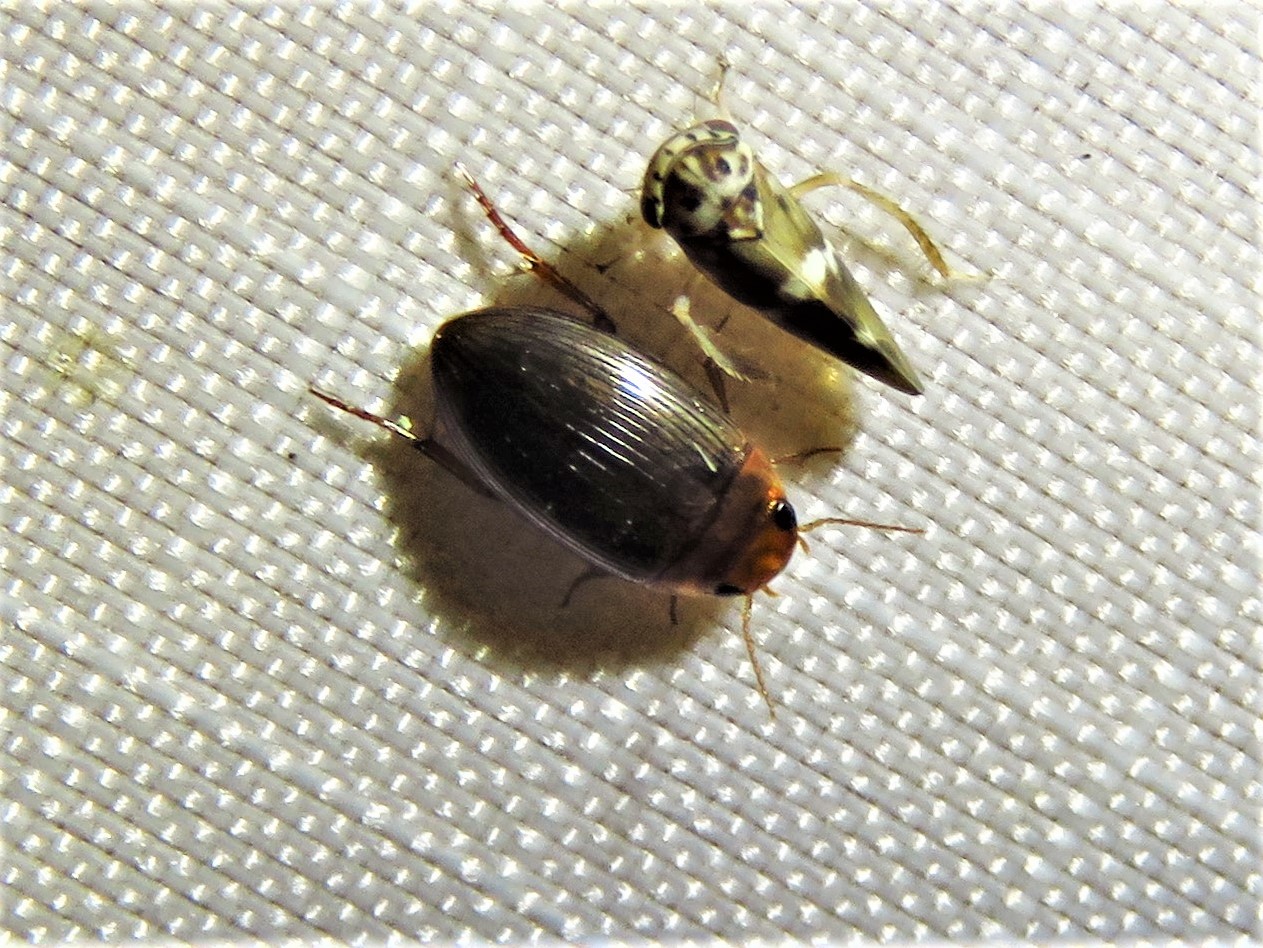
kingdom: Animalia
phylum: Arthropoda
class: Insecta
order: Coleoptera
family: Dytiscidae
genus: Copelatus
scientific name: Copelatus glyphicus
